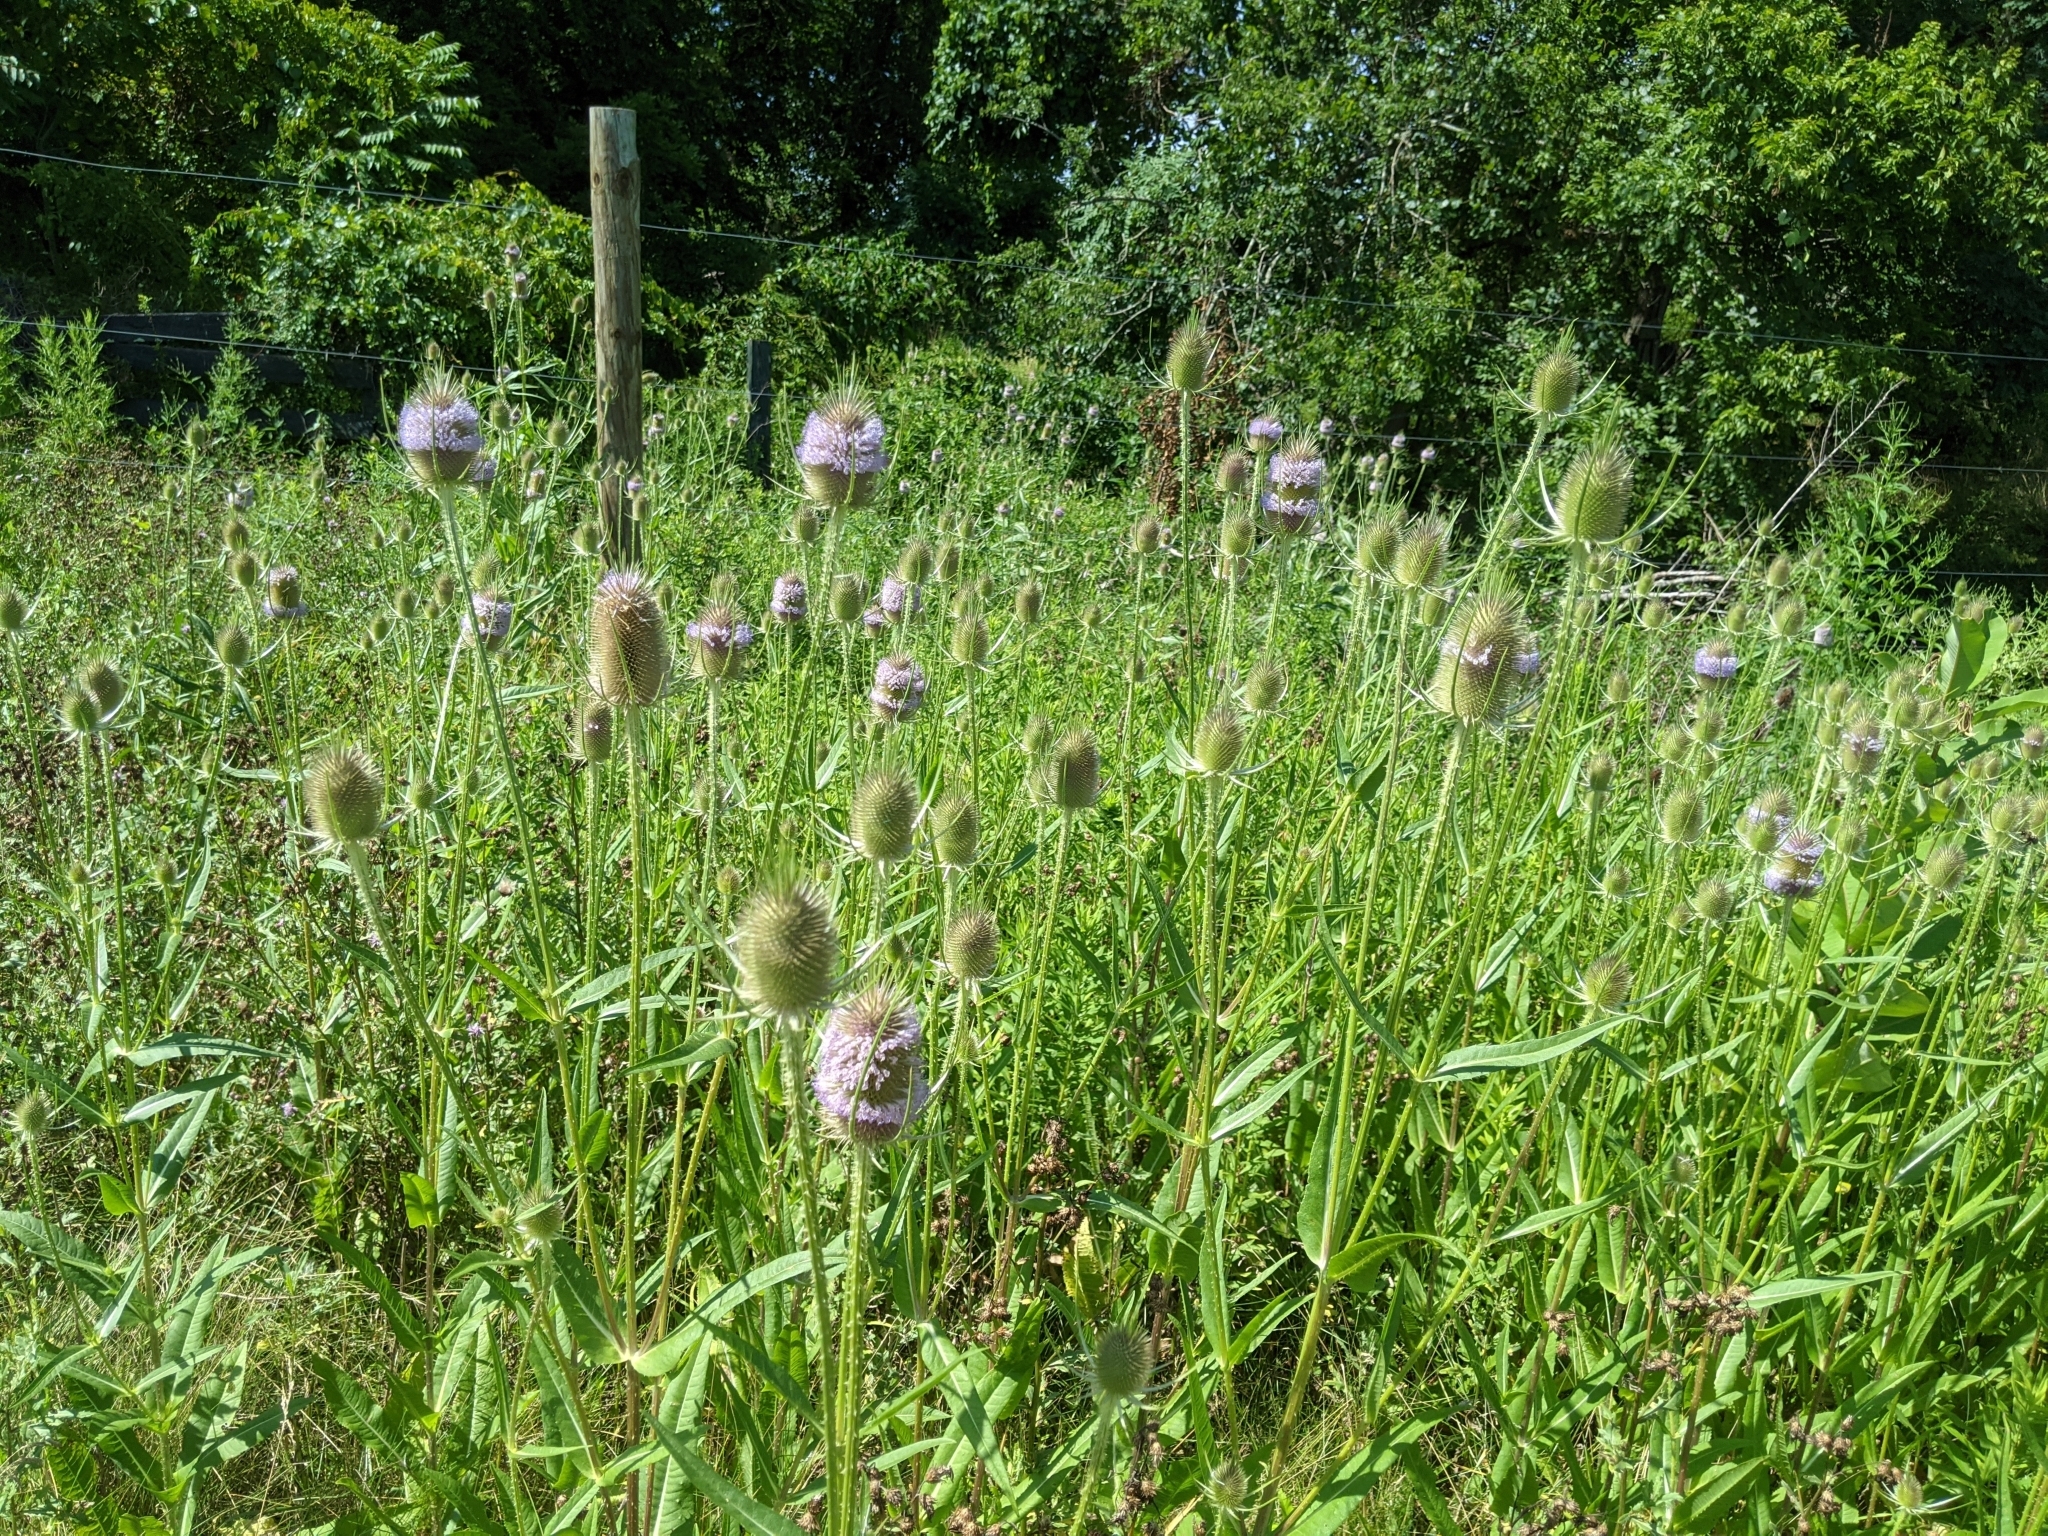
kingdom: Plantae
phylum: Tracheophyta
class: Magnoliopsida
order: Dipsacales
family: Caprifoliaceae
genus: Dipsacus
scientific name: Dipsacus fullonum
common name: Teasel
